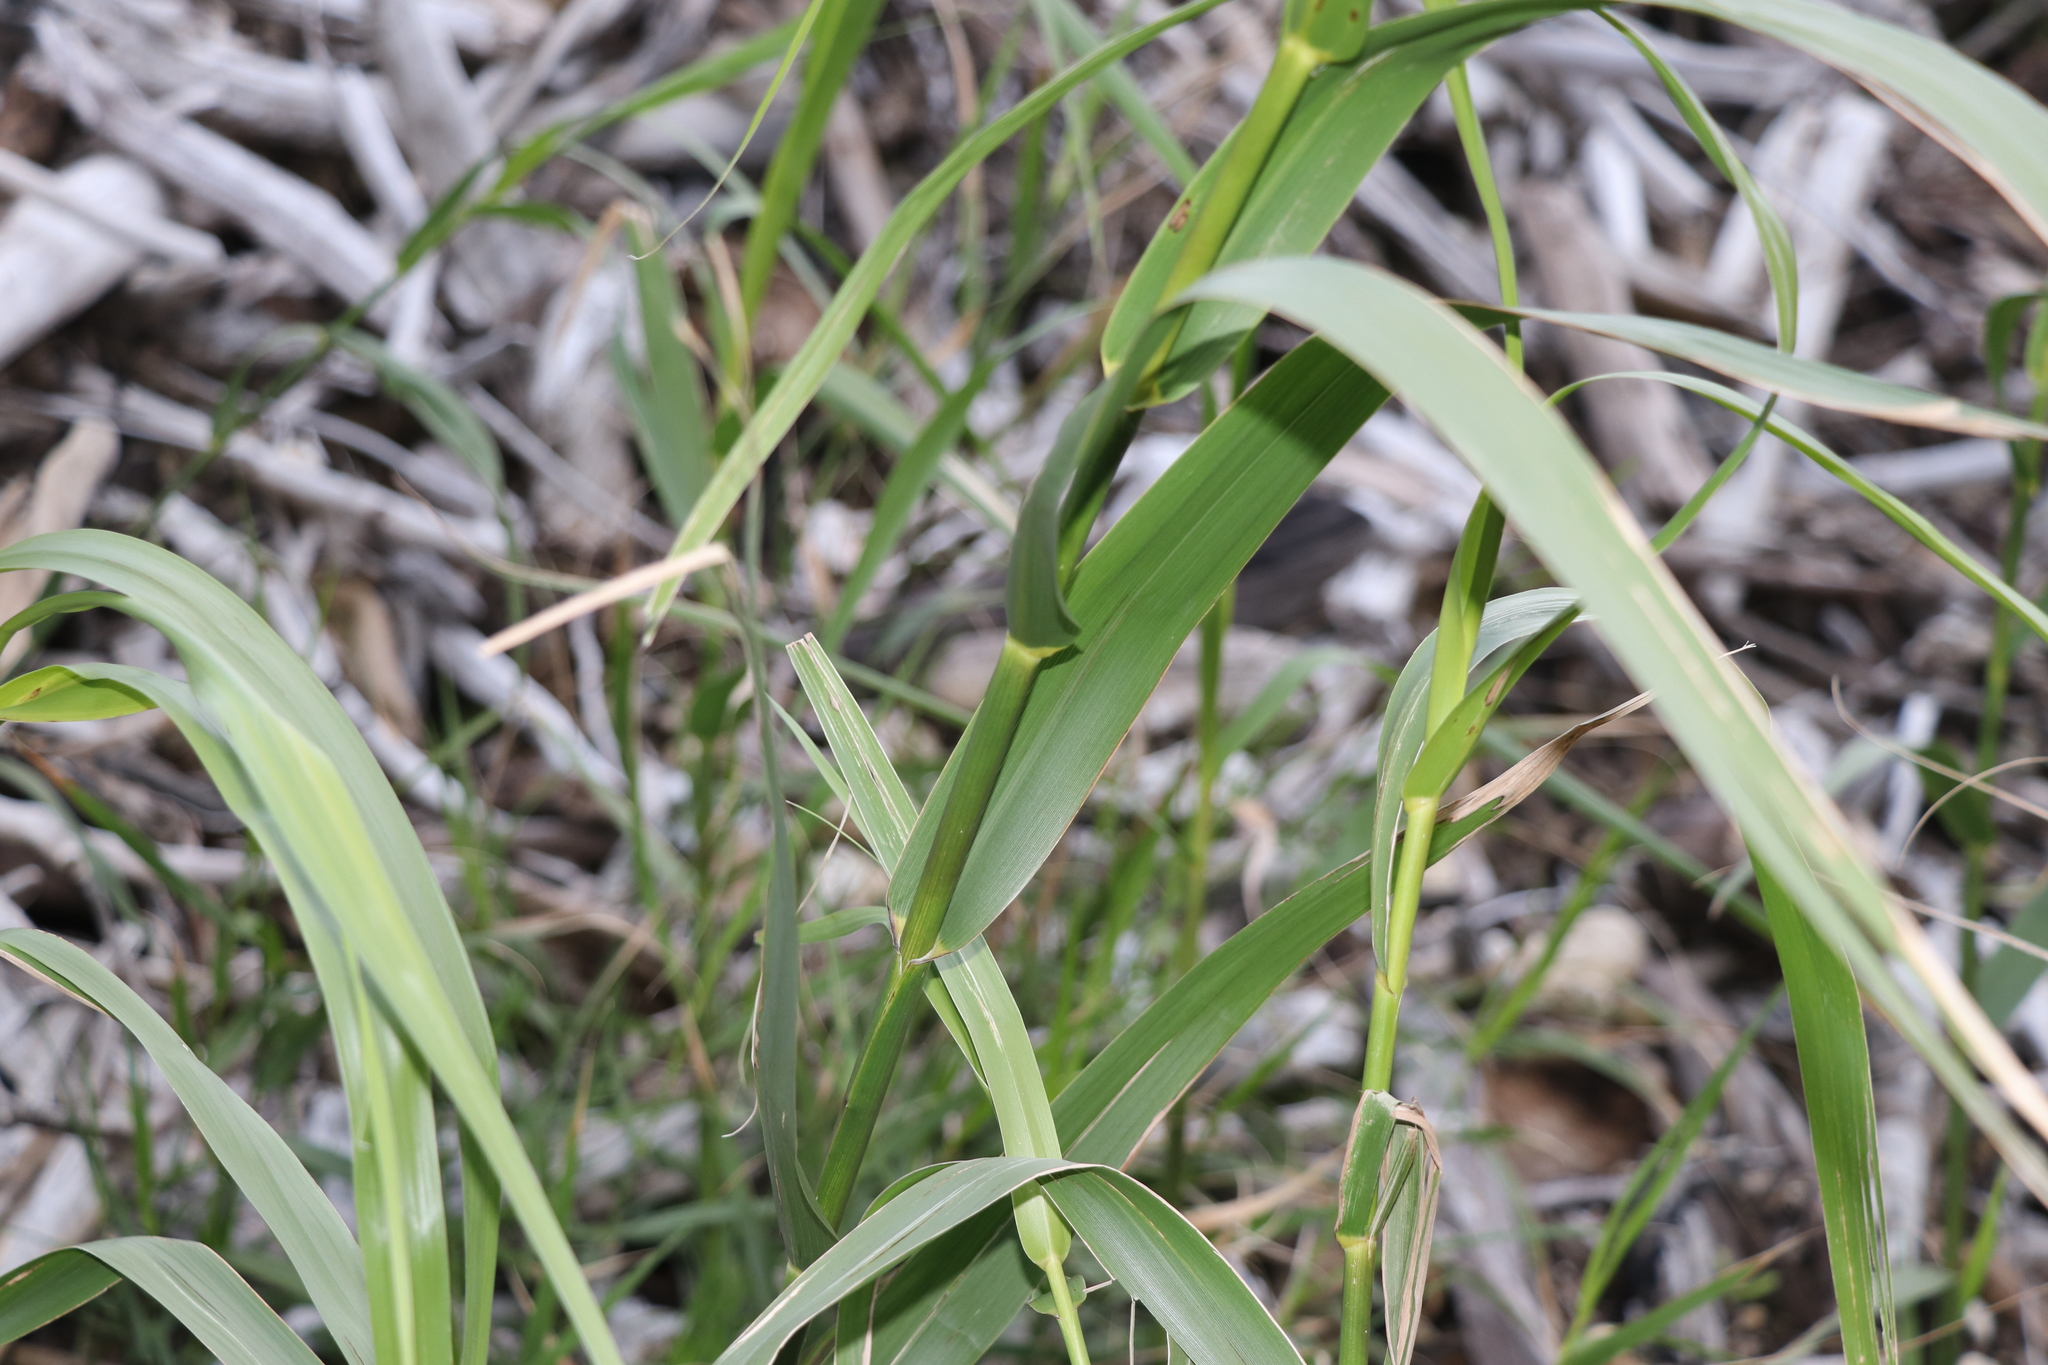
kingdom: Plantae
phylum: Tracheophyta
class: Liliopsida
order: Poales
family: Poaceae
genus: Arundo
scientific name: Arundo donax
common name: Giant reed
